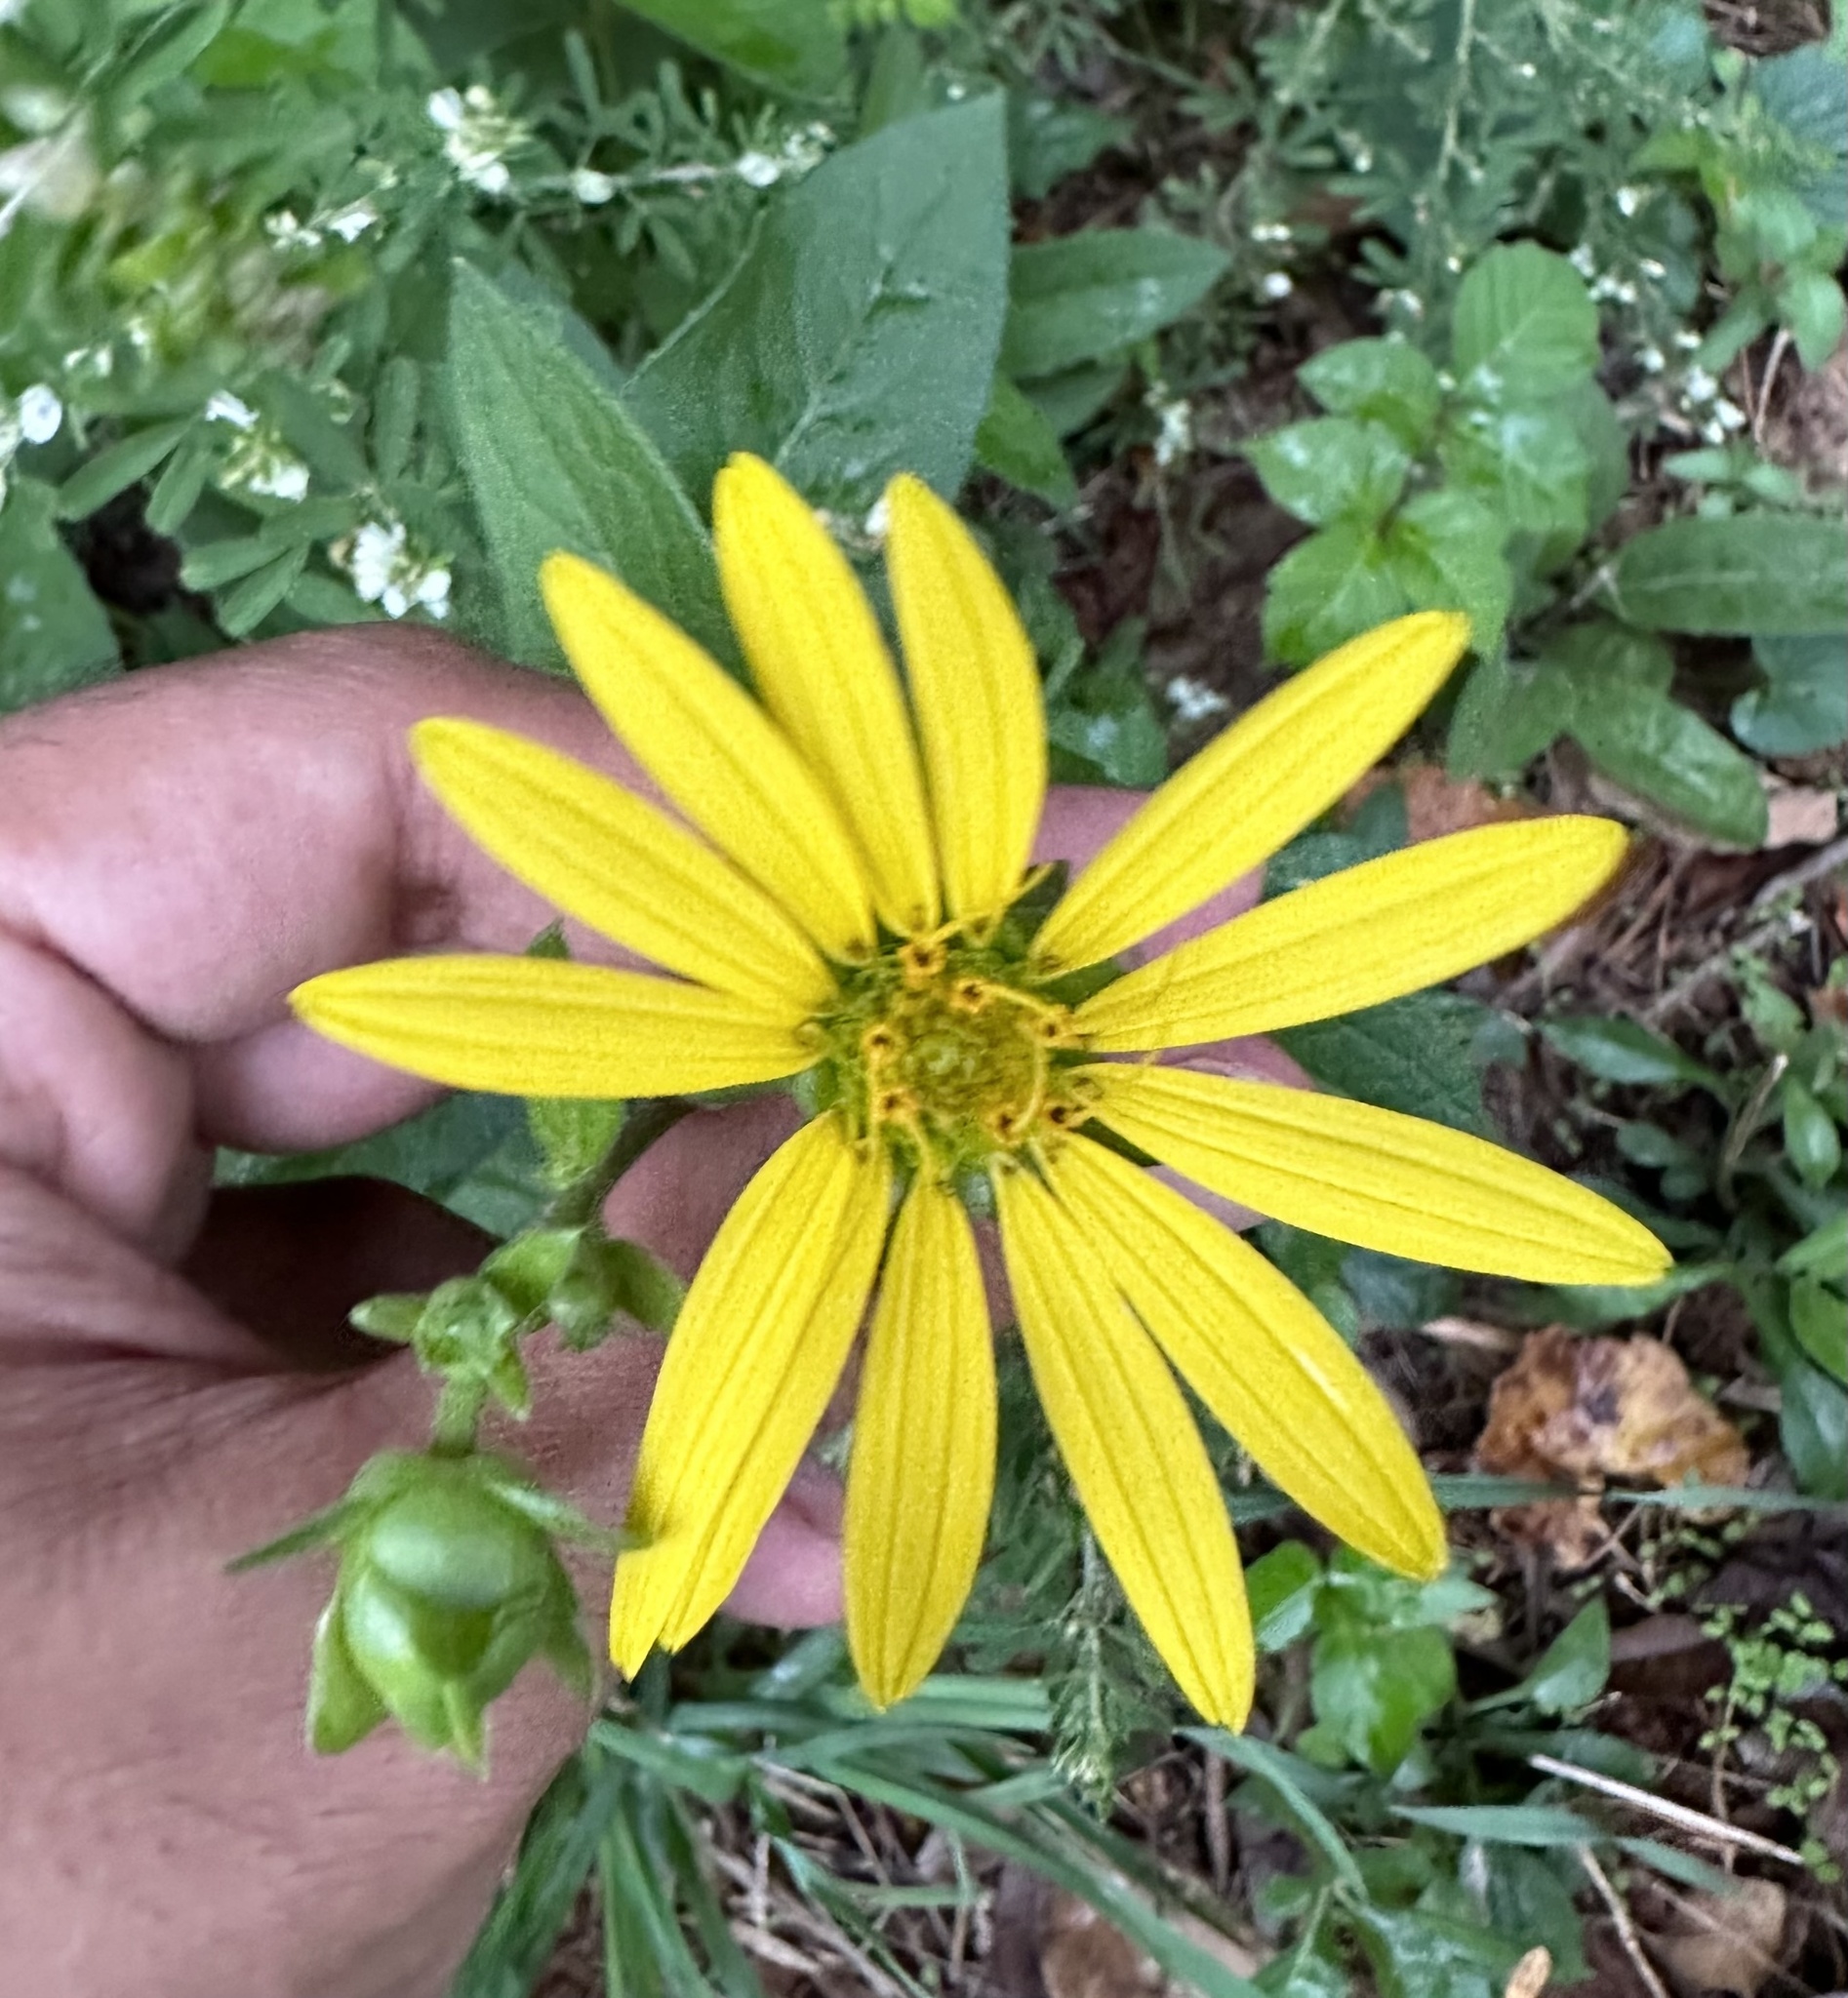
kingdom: Plantae
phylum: Tracheophyta
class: Magnoliopsida
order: Asterales
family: Asteraceae
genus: Silphium
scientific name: Silphium asteriscus
